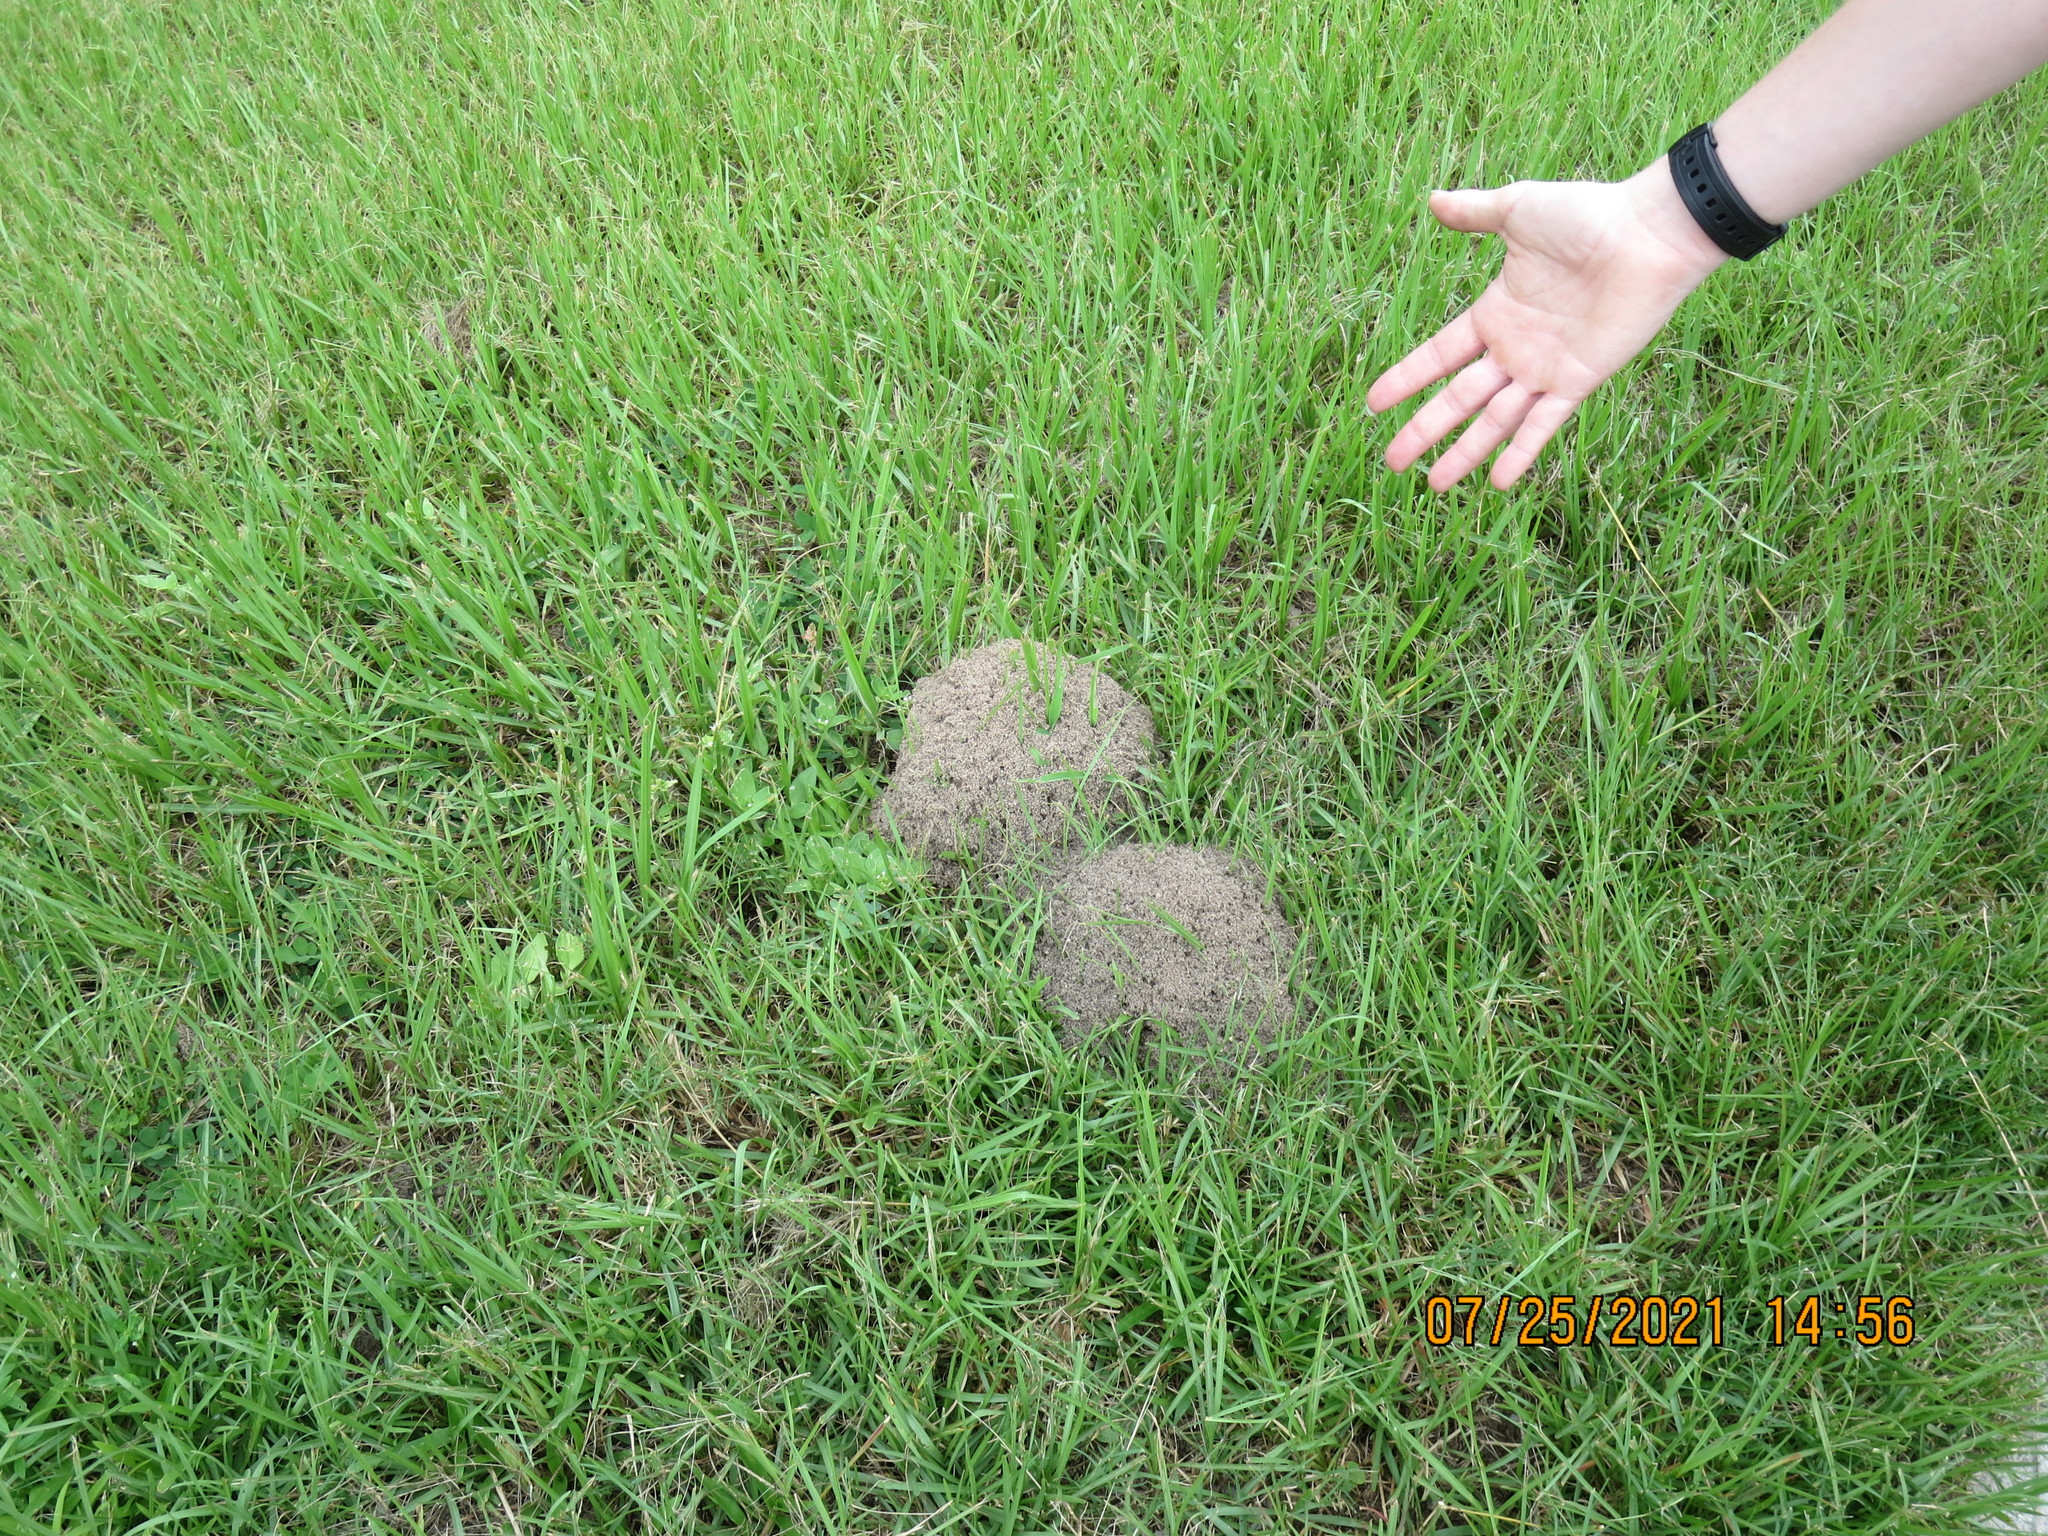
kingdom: Animalia
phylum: Arthropoda
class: Insecta
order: Hymenoptera
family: Formicidae
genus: Solenopsis
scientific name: Solenopsis invicta
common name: Red imported fire ant
